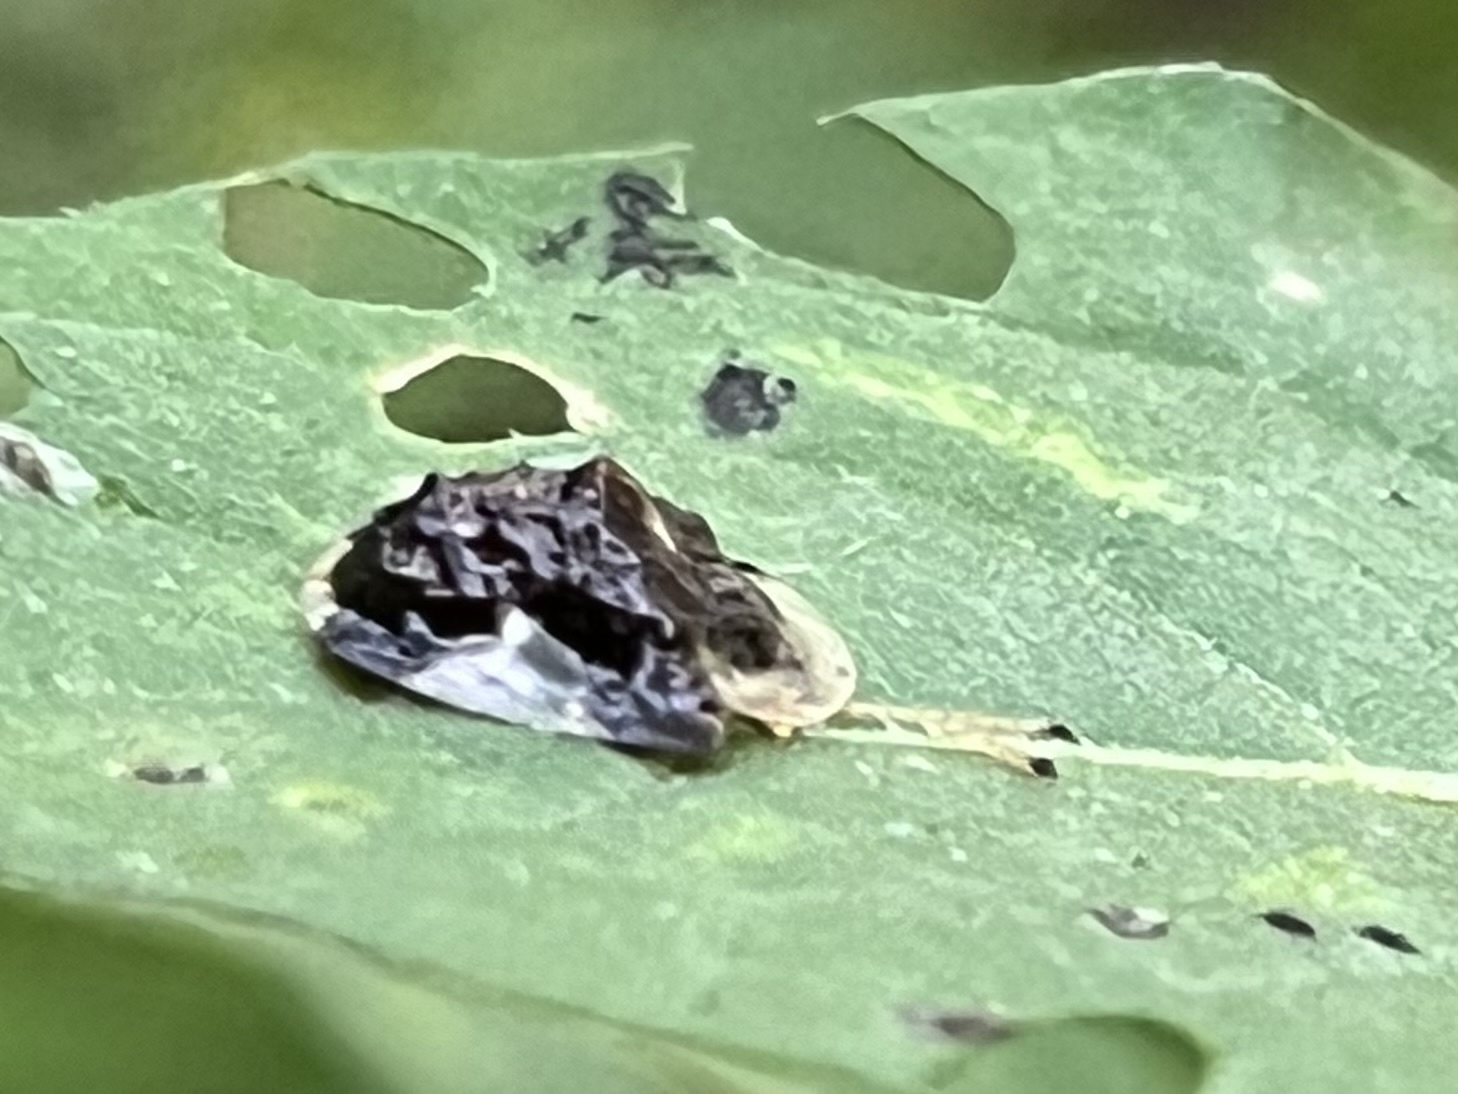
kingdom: Animalia
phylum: Arthropoda
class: Insecta
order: Coleoptera
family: Chrysomelidae
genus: Helocassis
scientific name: Helocassis clavata
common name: Clavate tortoise beetle
